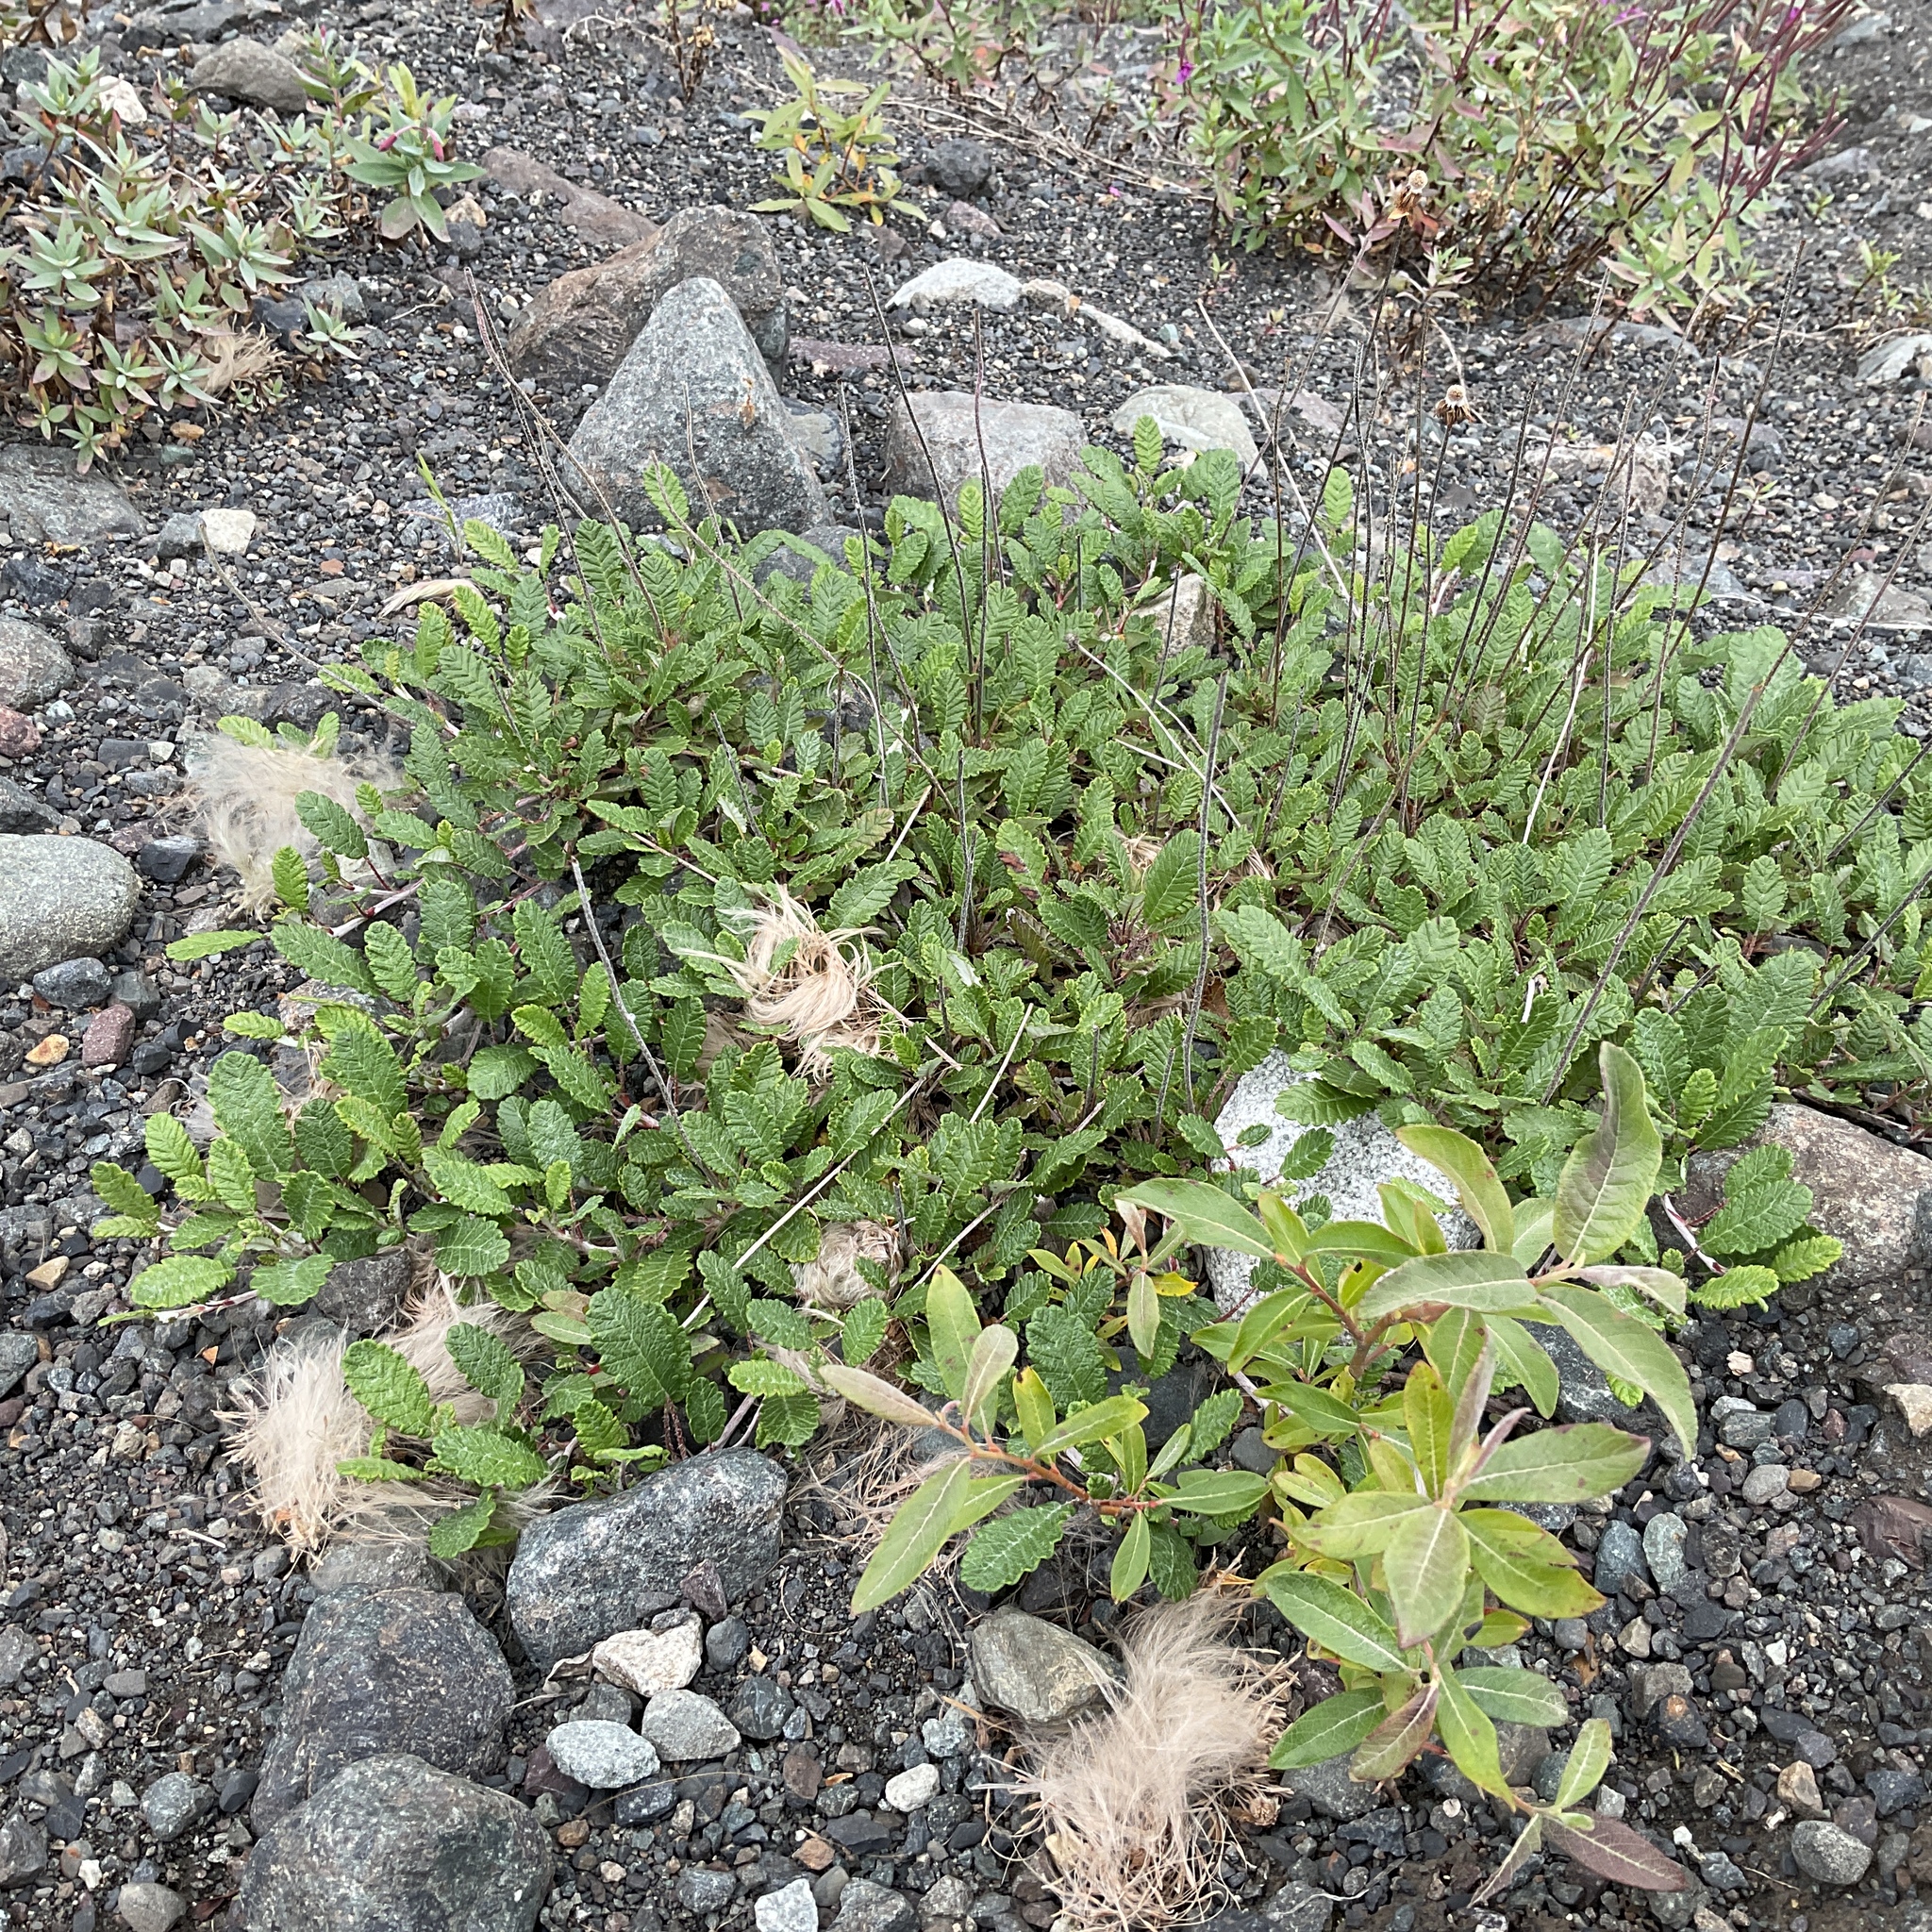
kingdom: Plantae
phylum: Tracheophyta
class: Magnoliopsida
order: Rosales
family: Rosaceae
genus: Dryas
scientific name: Dryas drummondii
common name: Drummond's dryad
